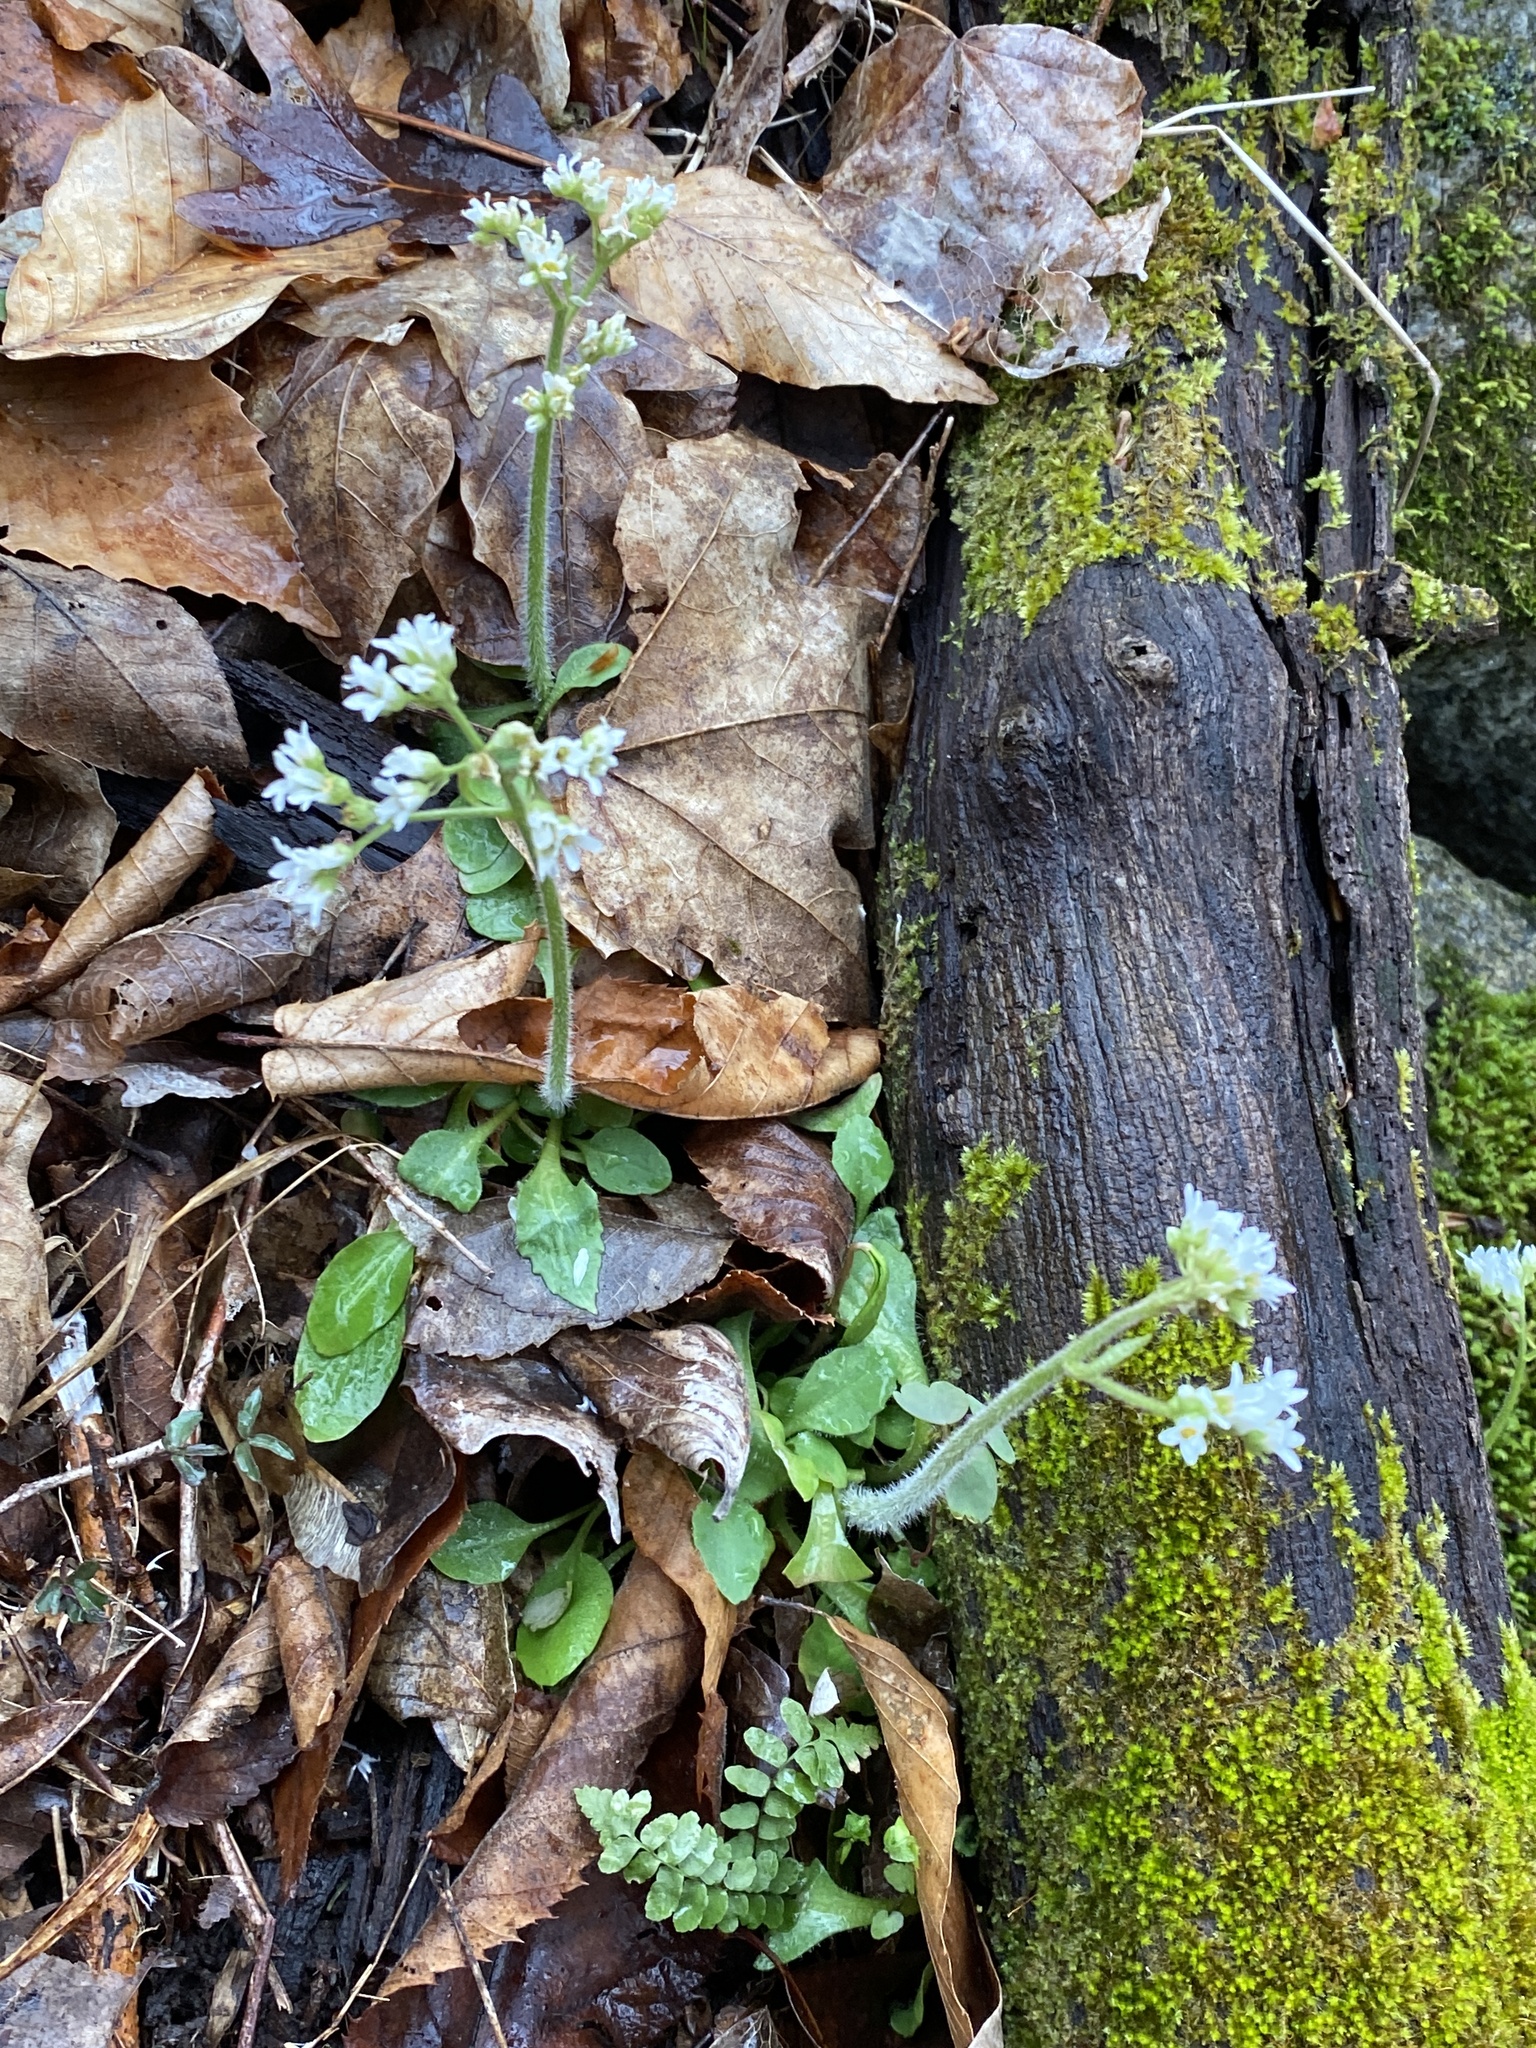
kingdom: Plantae
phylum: Tracheophyta
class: Magnoliopsida
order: Saxifragales
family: Saxifragaceae
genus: Micranthes
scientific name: Micranthes virginiensis
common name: Early saxifrage
